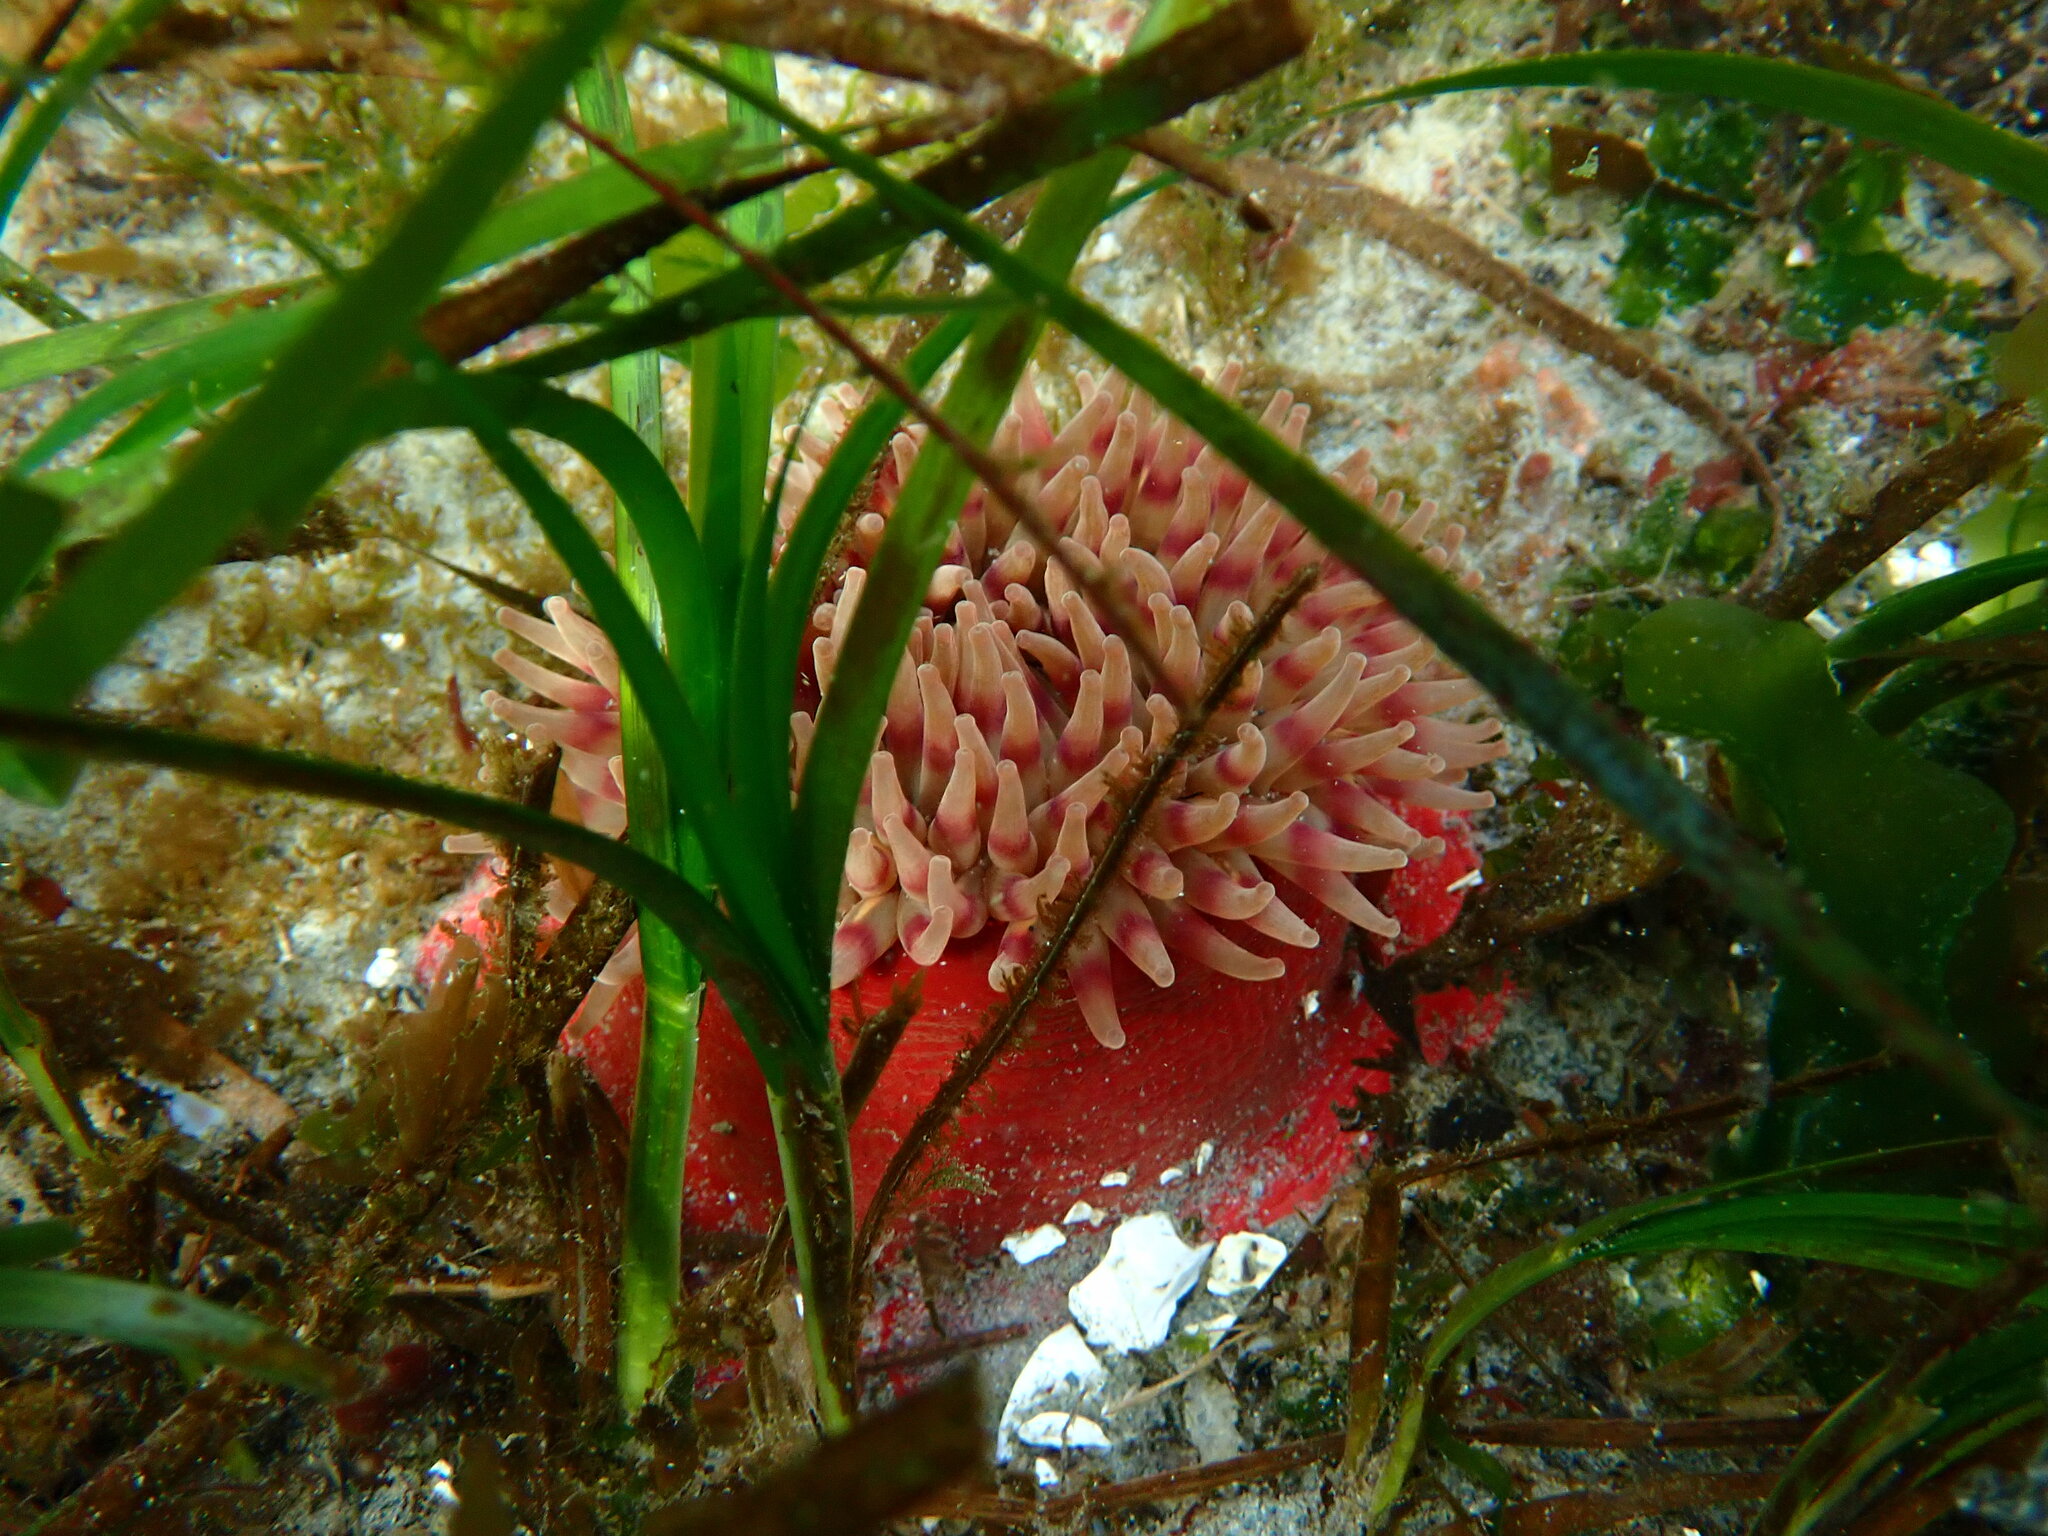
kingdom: Animalia
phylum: Cnidaria
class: Anthozoa
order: Actiniaria
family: Actiniidae
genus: Urticina
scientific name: Urticina grebelnyi
